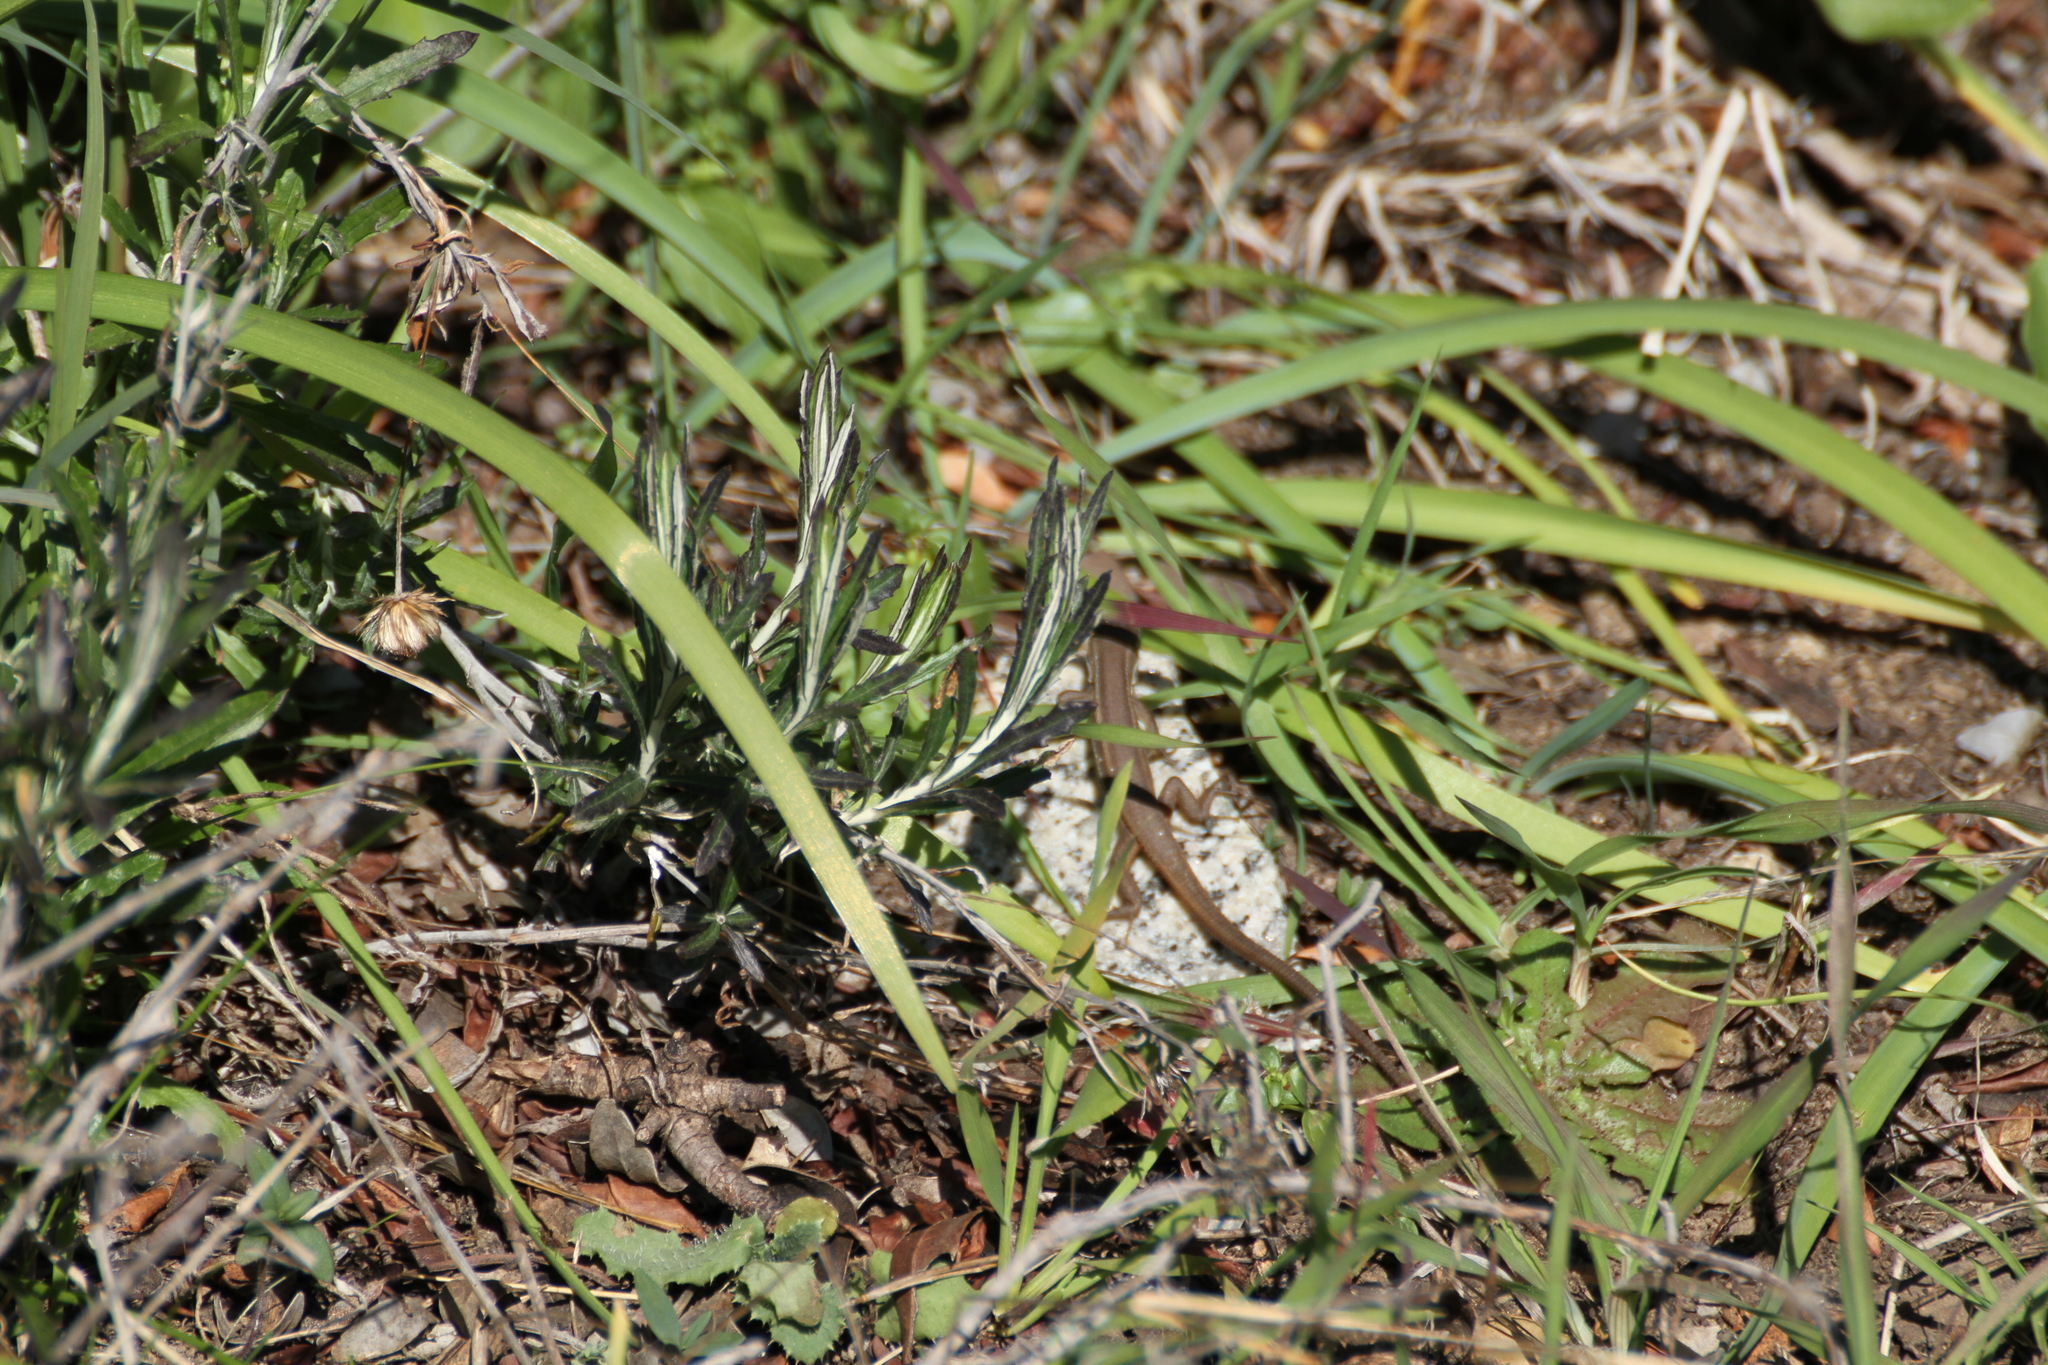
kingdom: Animalia
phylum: Chordata
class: Squamata
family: Lacertidae
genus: Psammodromus
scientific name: Psammodromus algirus
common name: Algerian psammodromus
